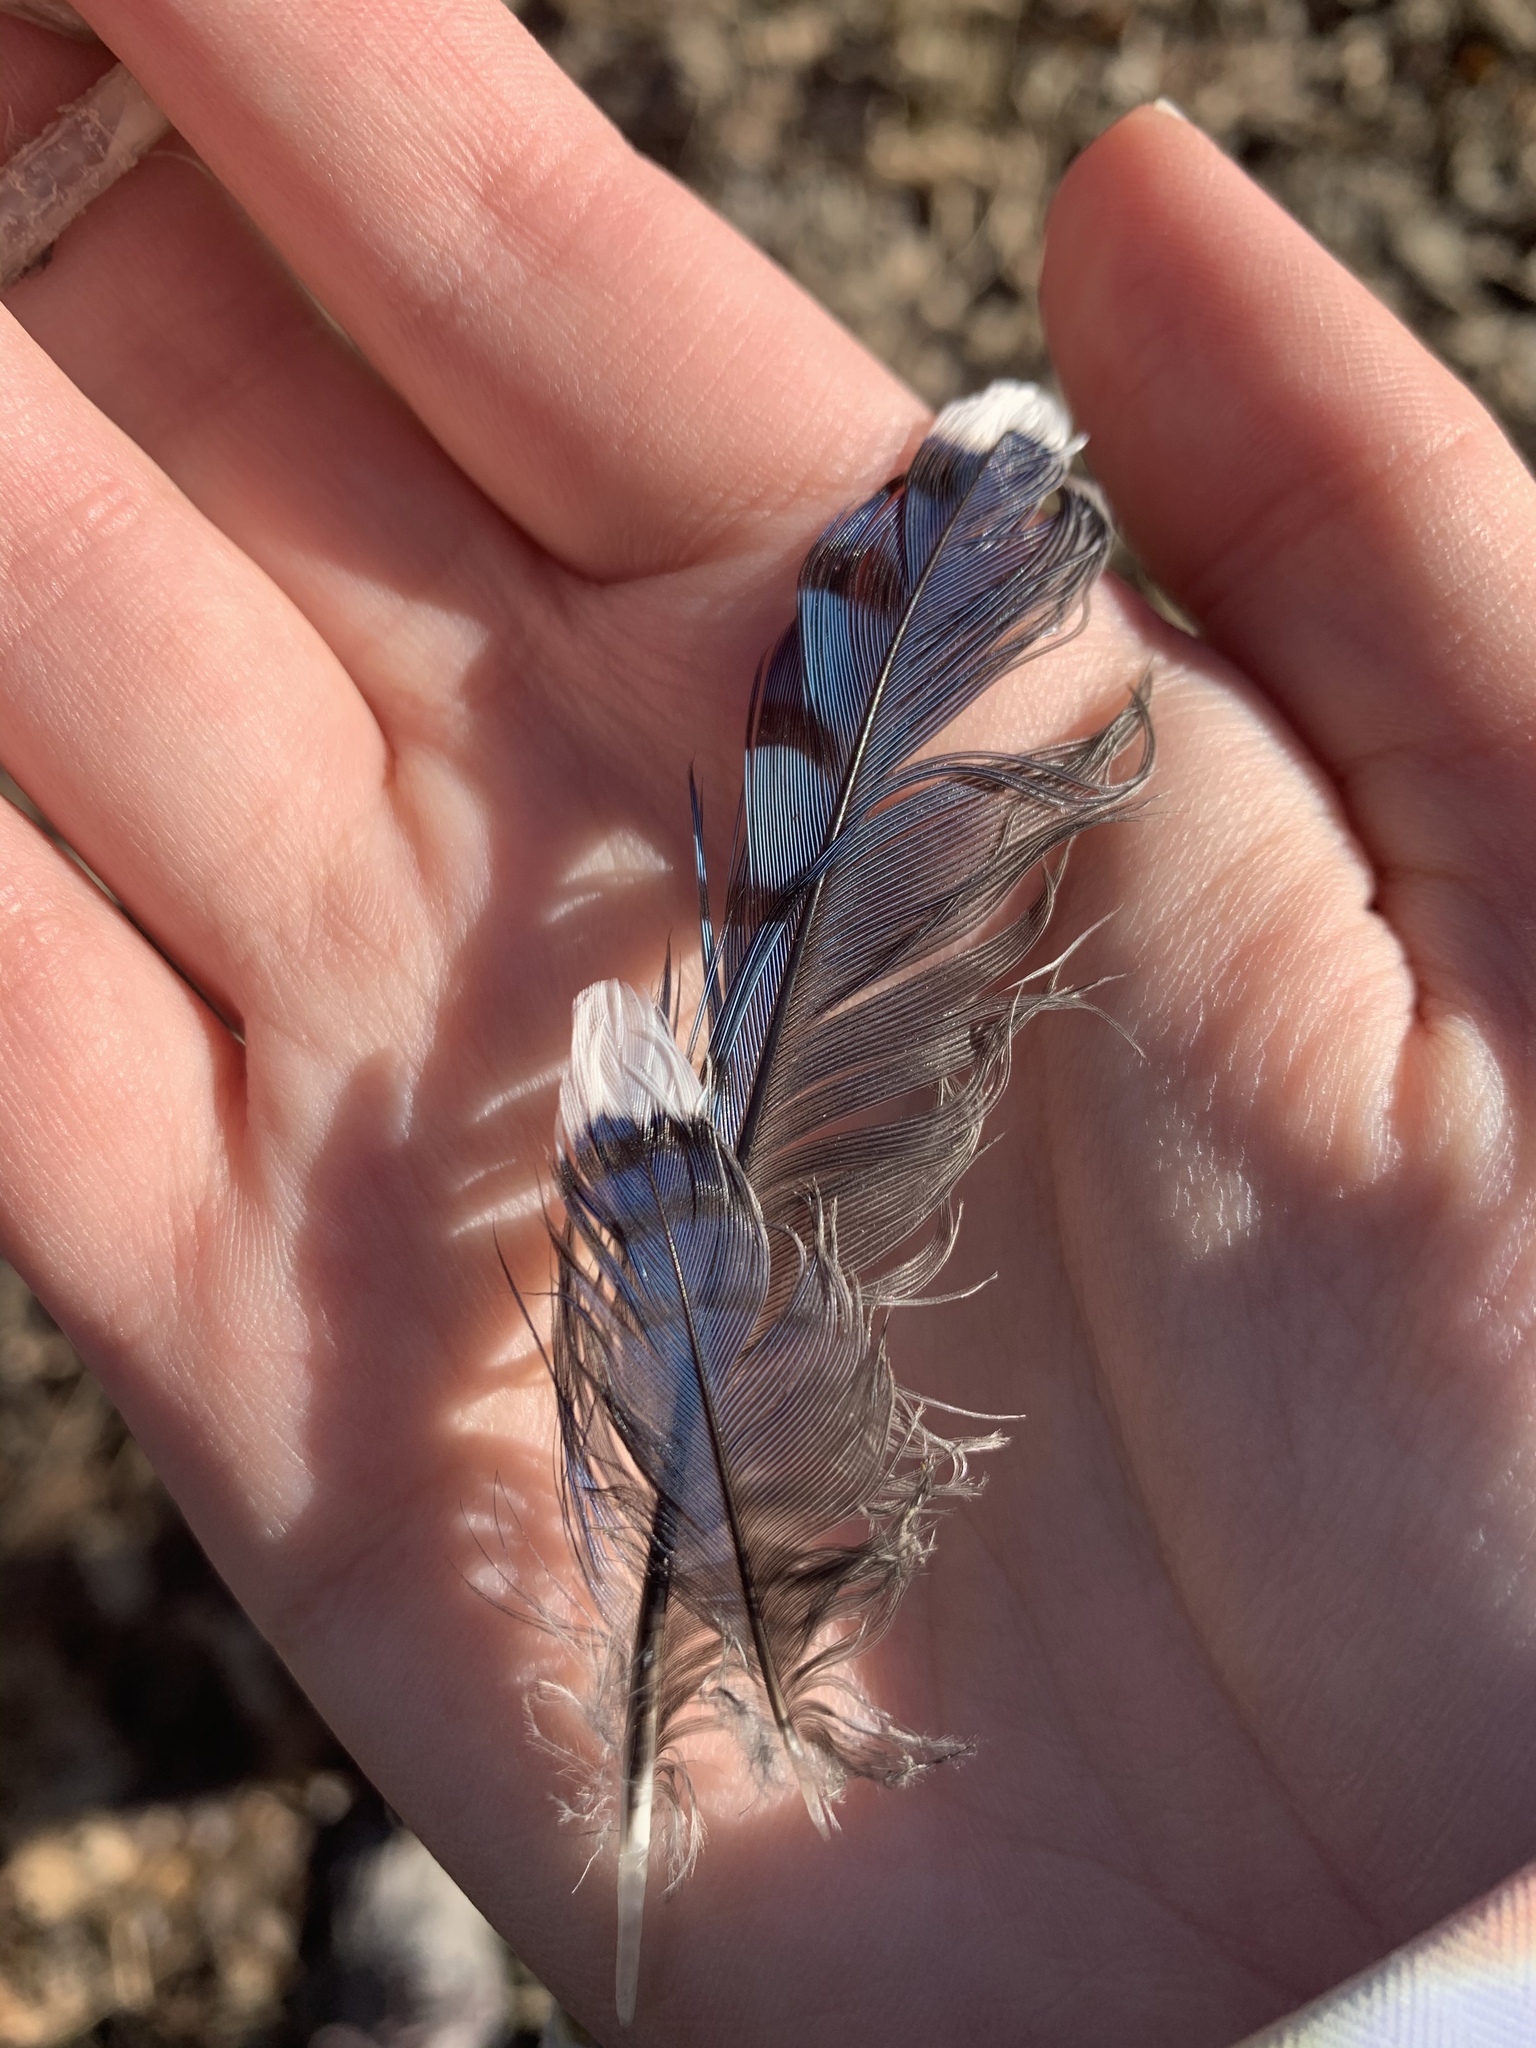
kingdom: Animalia
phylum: Chordata
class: Aves
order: Passeriformes
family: Corvidae
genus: Cyanocitta
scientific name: Cyanocitta cristata
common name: Blue jay
